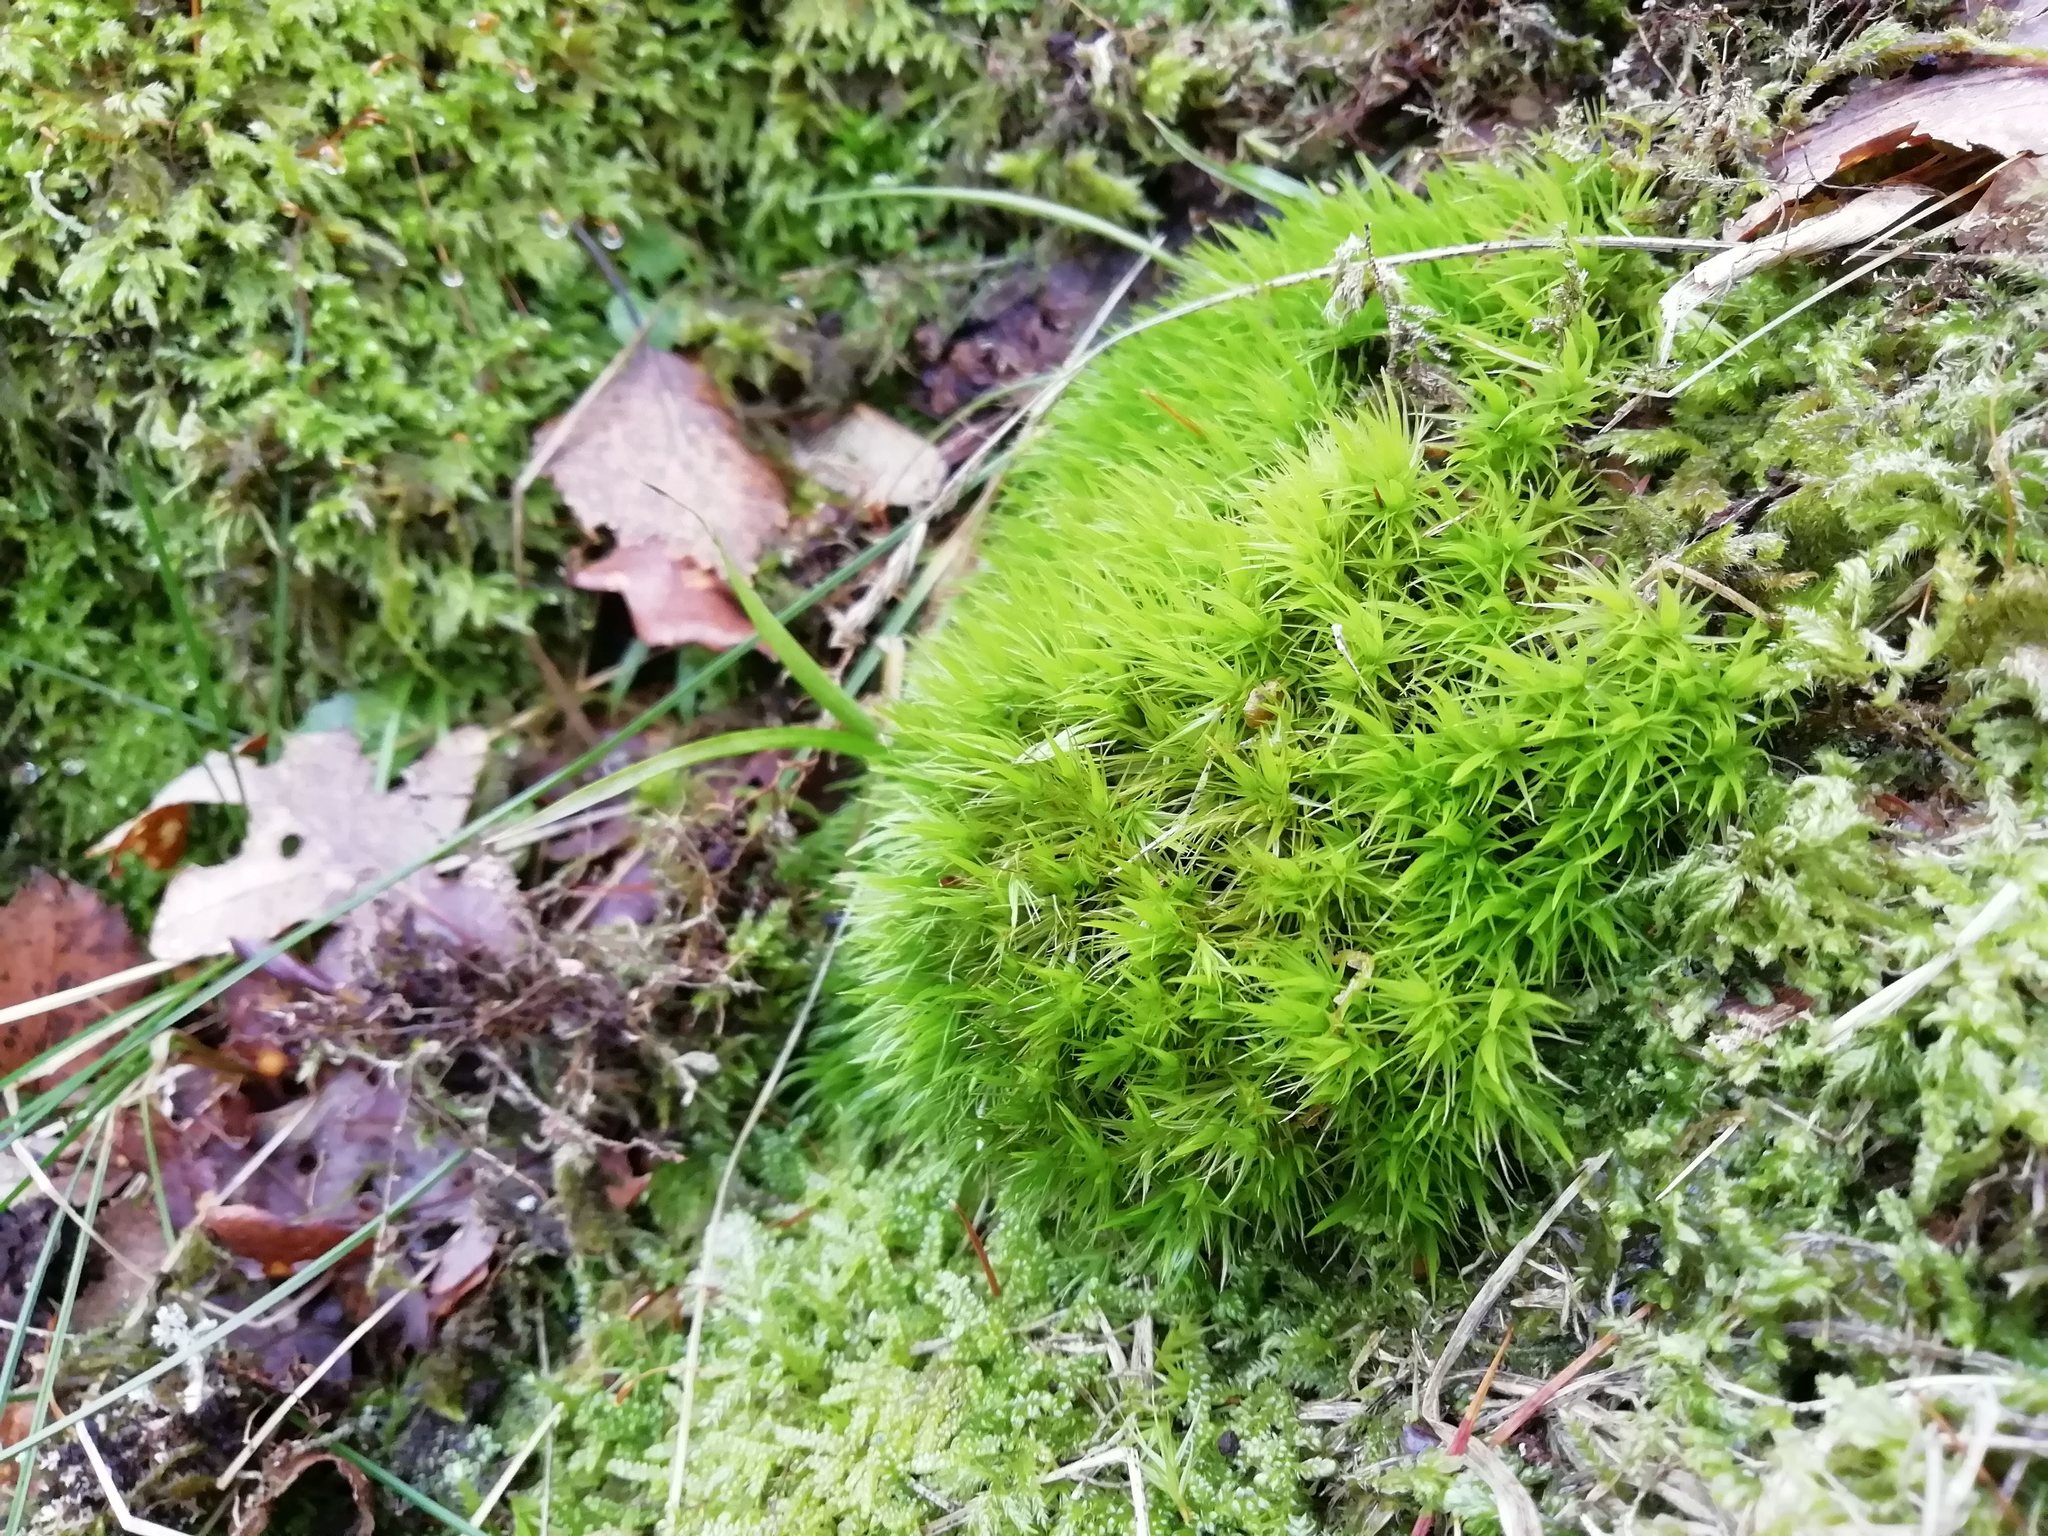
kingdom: Plantae
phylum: Bryophyta
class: Bryopsida
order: Dicranales
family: Dicranaceae
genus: Dicranum
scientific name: Dicranum scoparium
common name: Broom fork-moss
